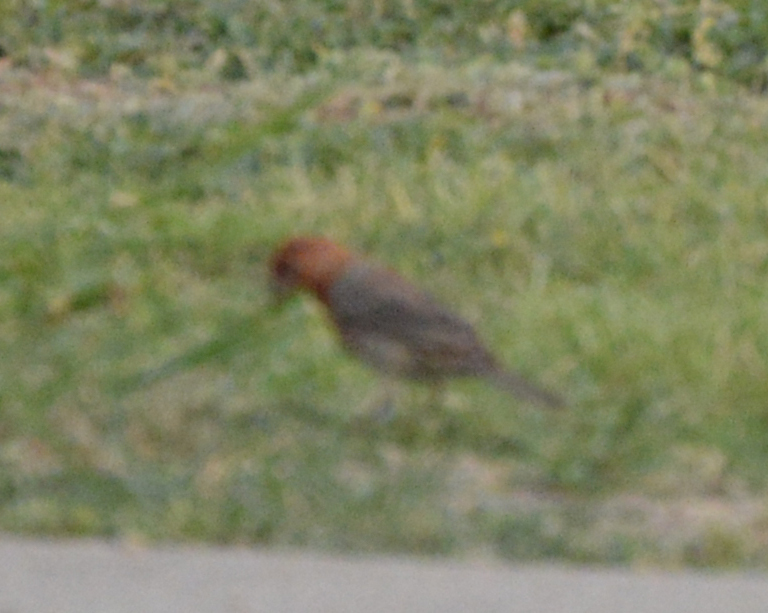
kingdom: Animalia
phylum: Chordata
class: Aves
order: Passeriformes
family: Fringillidae
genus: Haemorhous
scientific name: Haemorhous mexicanus
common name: House finch
